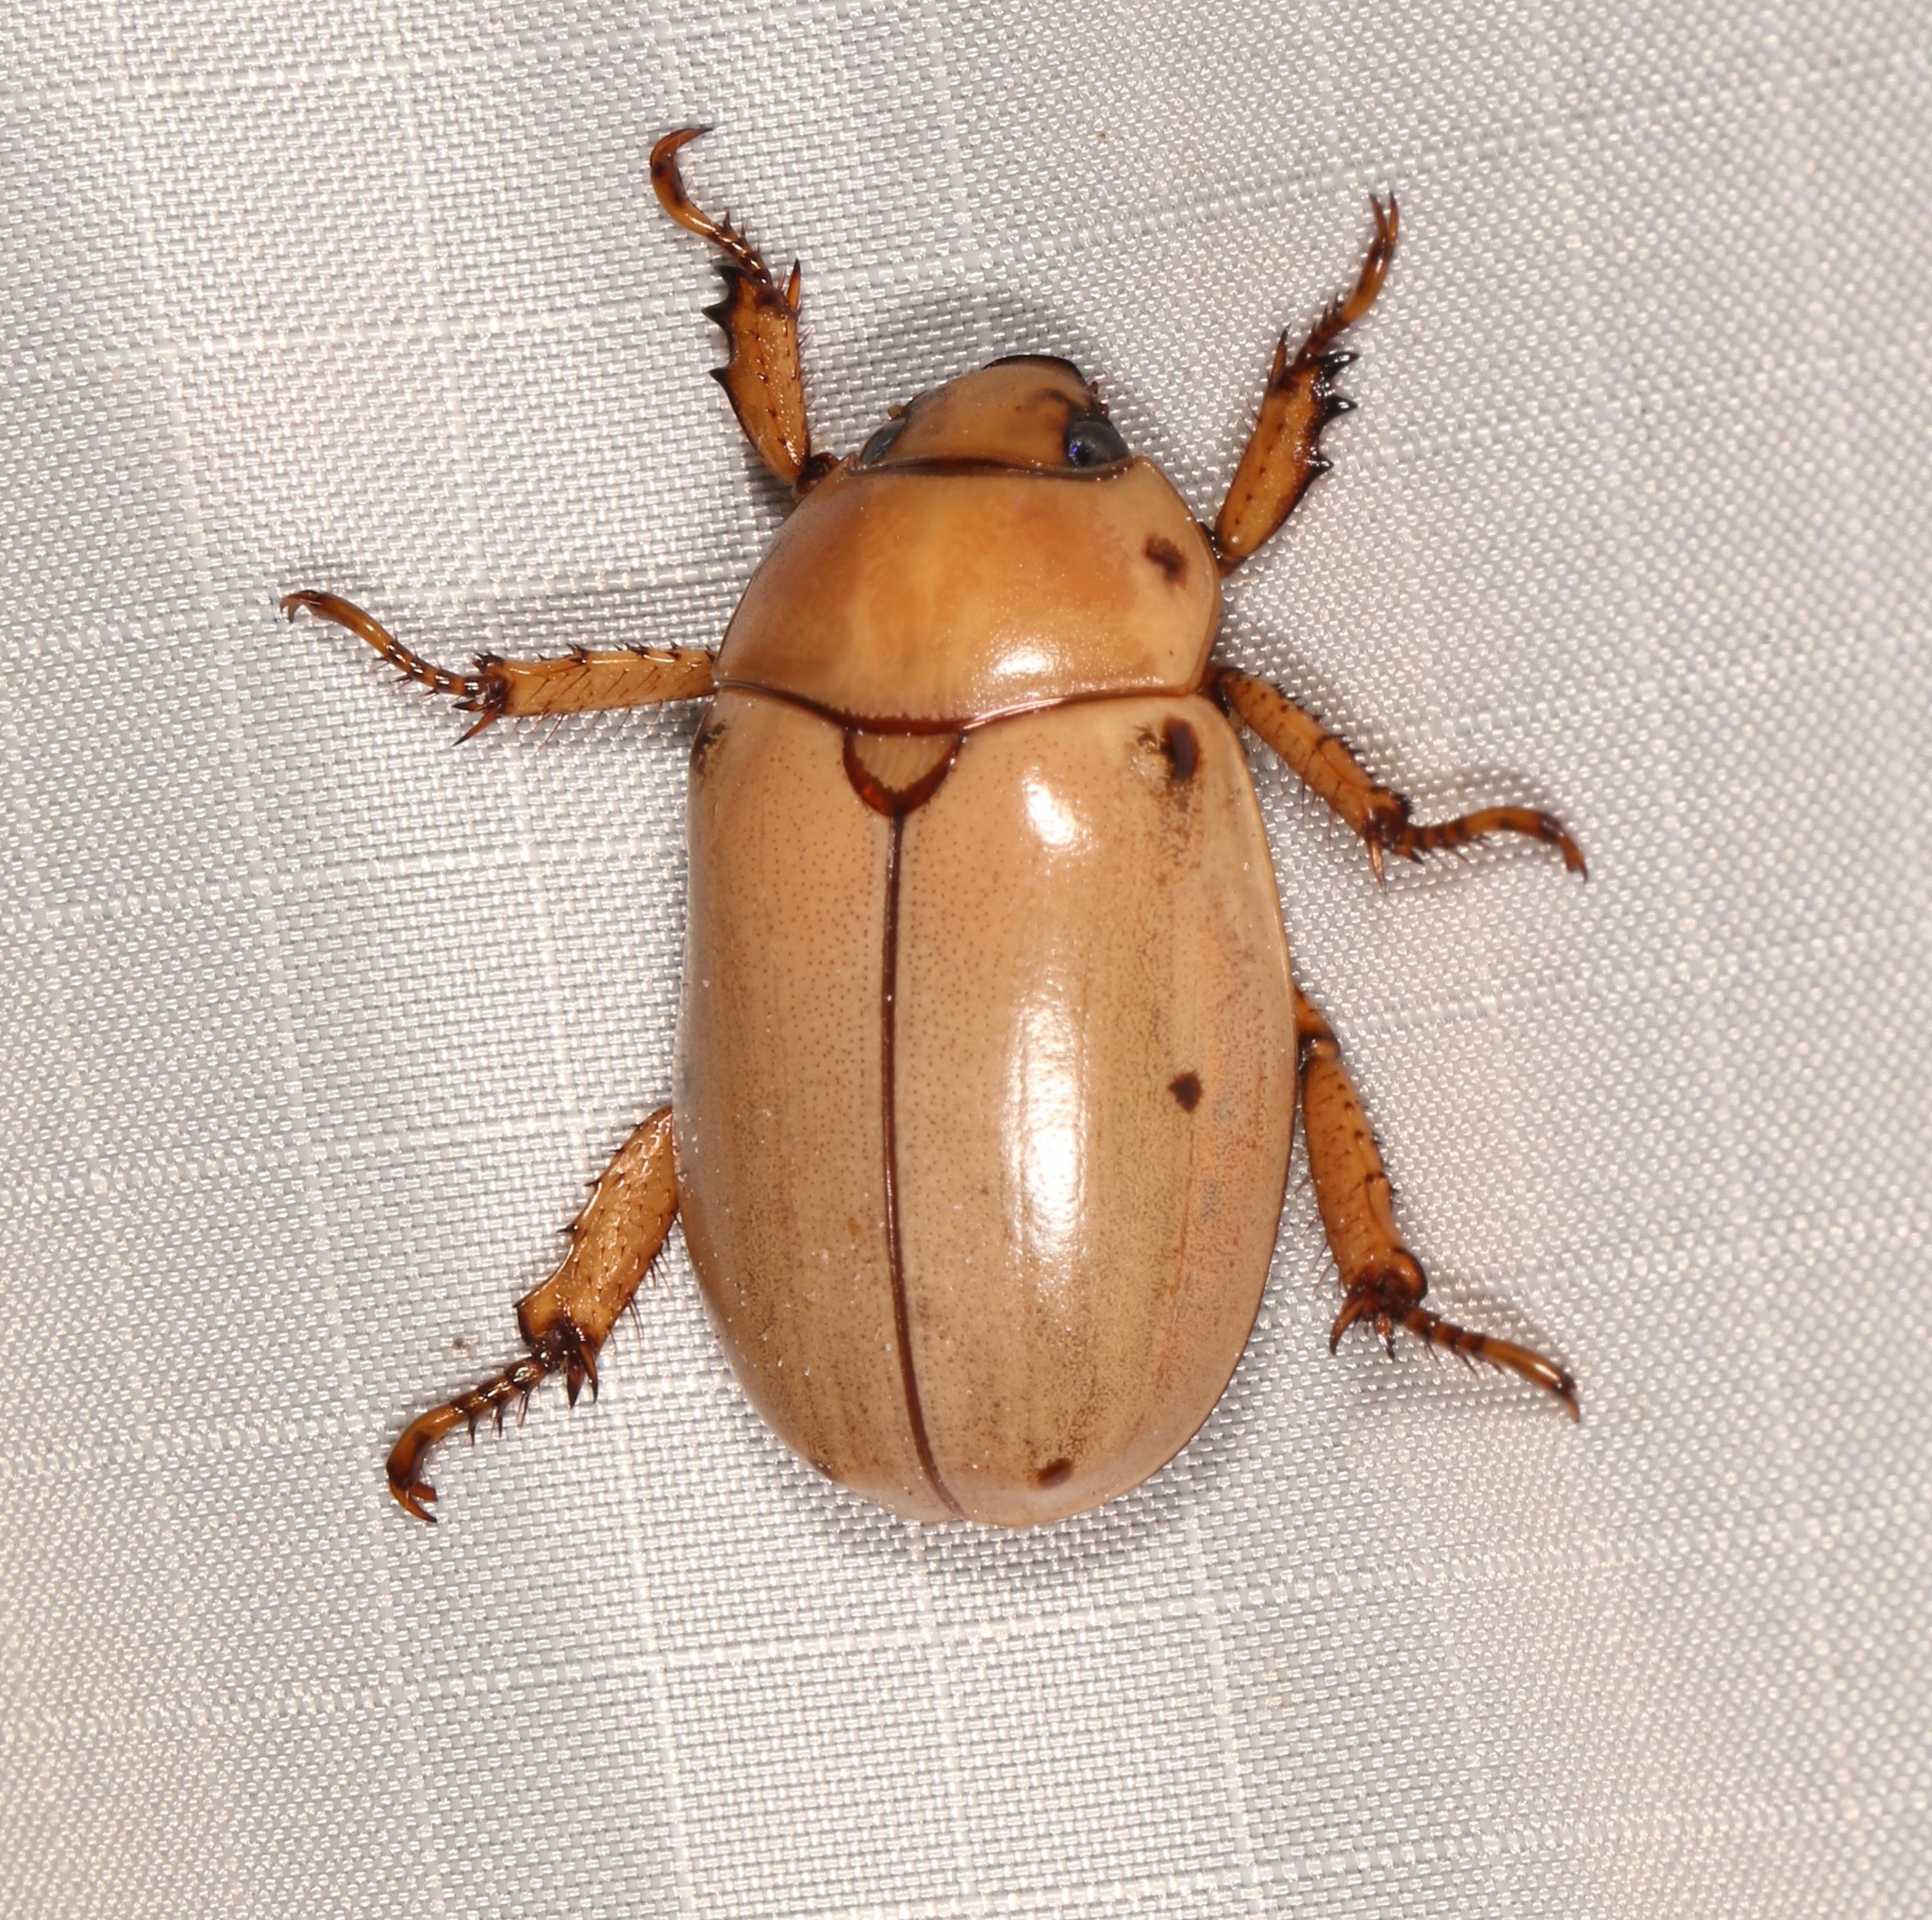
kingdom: Animalia
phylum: Arthropoda
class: Insecta
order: Coleoptera
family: Scarabaeidae
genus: Pelidnota
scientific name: Pelidnota punctata
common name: Grapevine beetle
